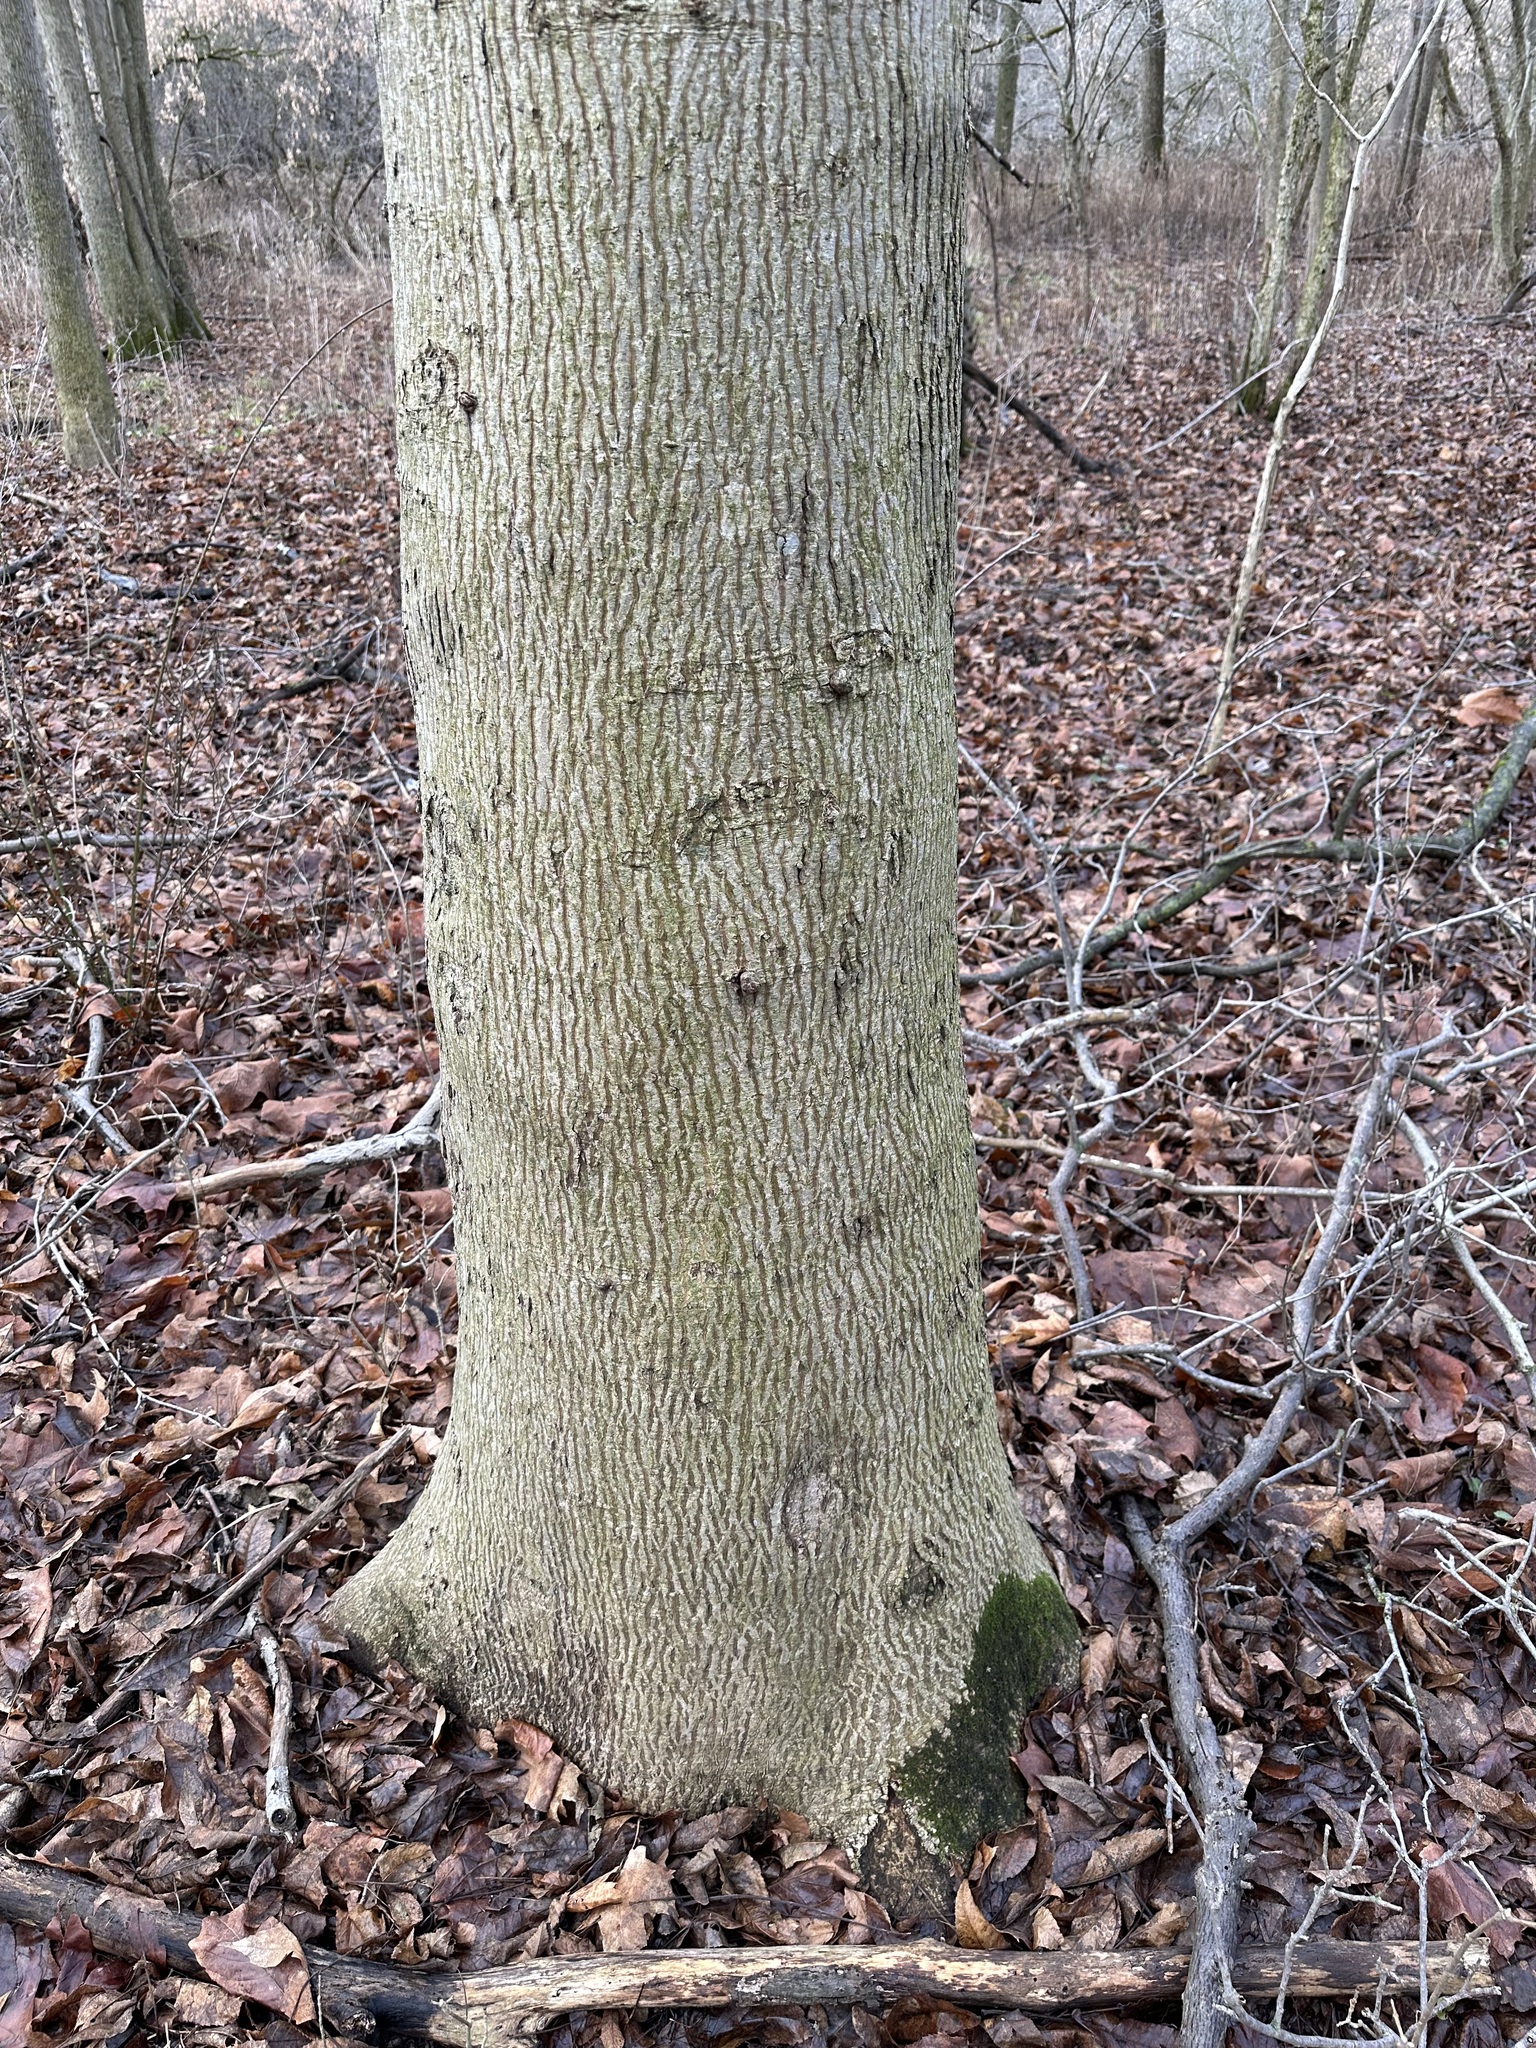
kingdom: Plantae
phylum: Tracheophyta
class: Magnoliopsida
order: Fagales
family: Juglandaceae
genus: Carya
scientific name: Carya cordiformis
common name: Bitternut hickory
